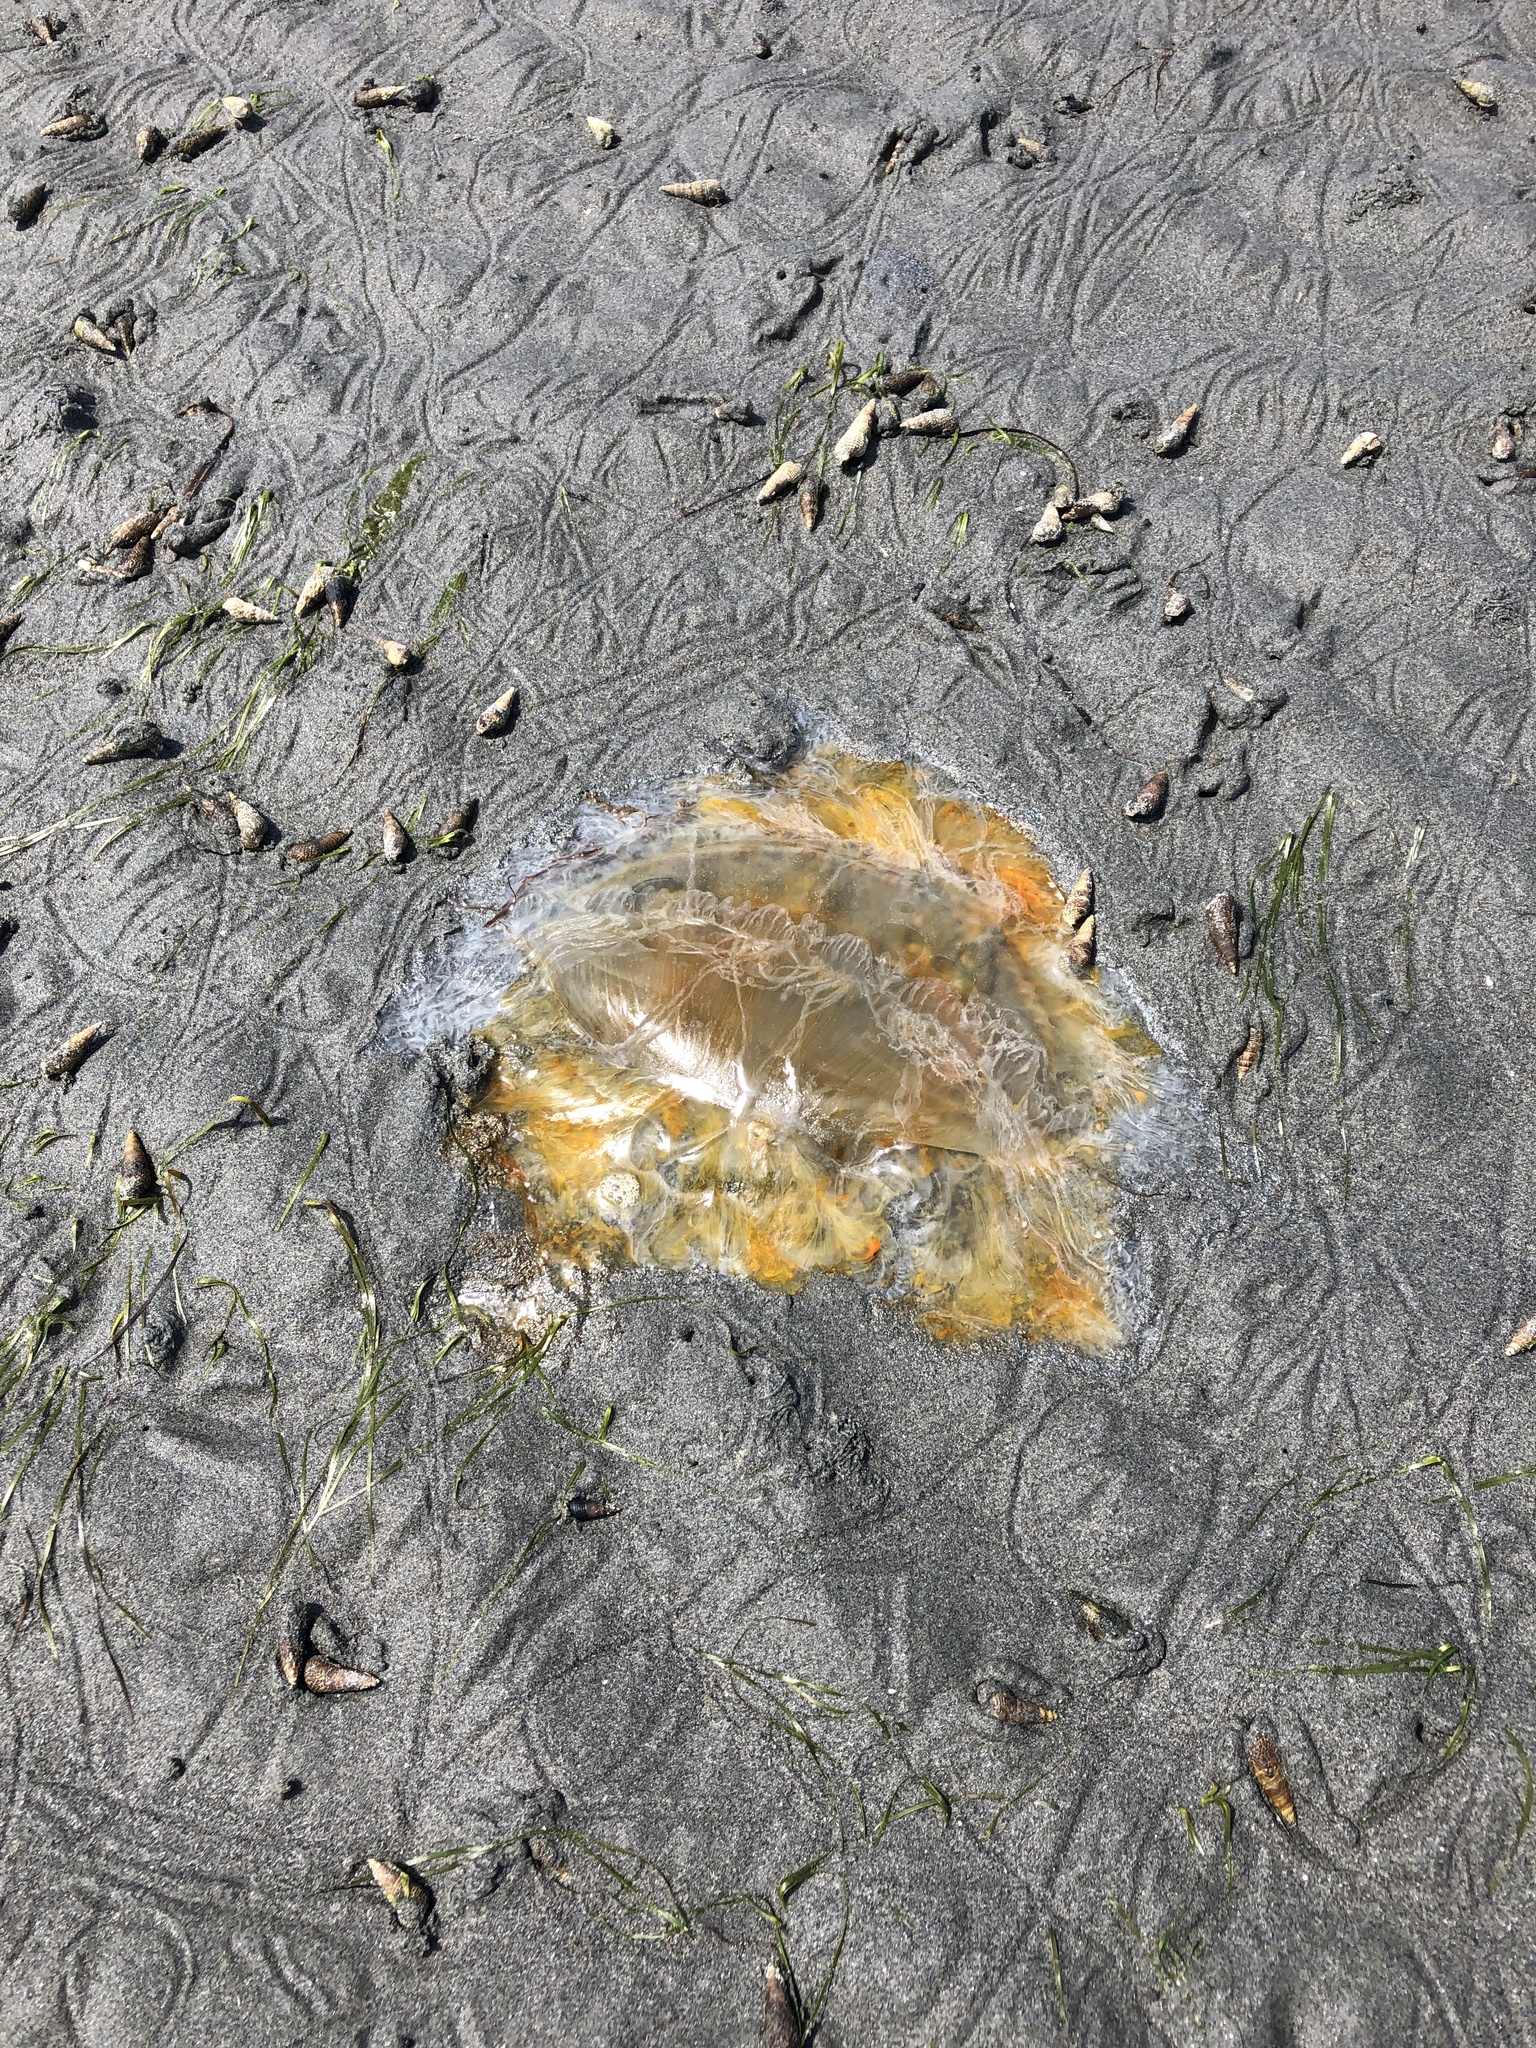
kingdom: Animalia
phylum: Cnidaria
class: Scyphozoa
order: Semaeostomeae
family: Phacellophoridae
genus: Phacellophora
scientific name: Phacellophora camtschatica
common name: Fried-egg jellyfish
